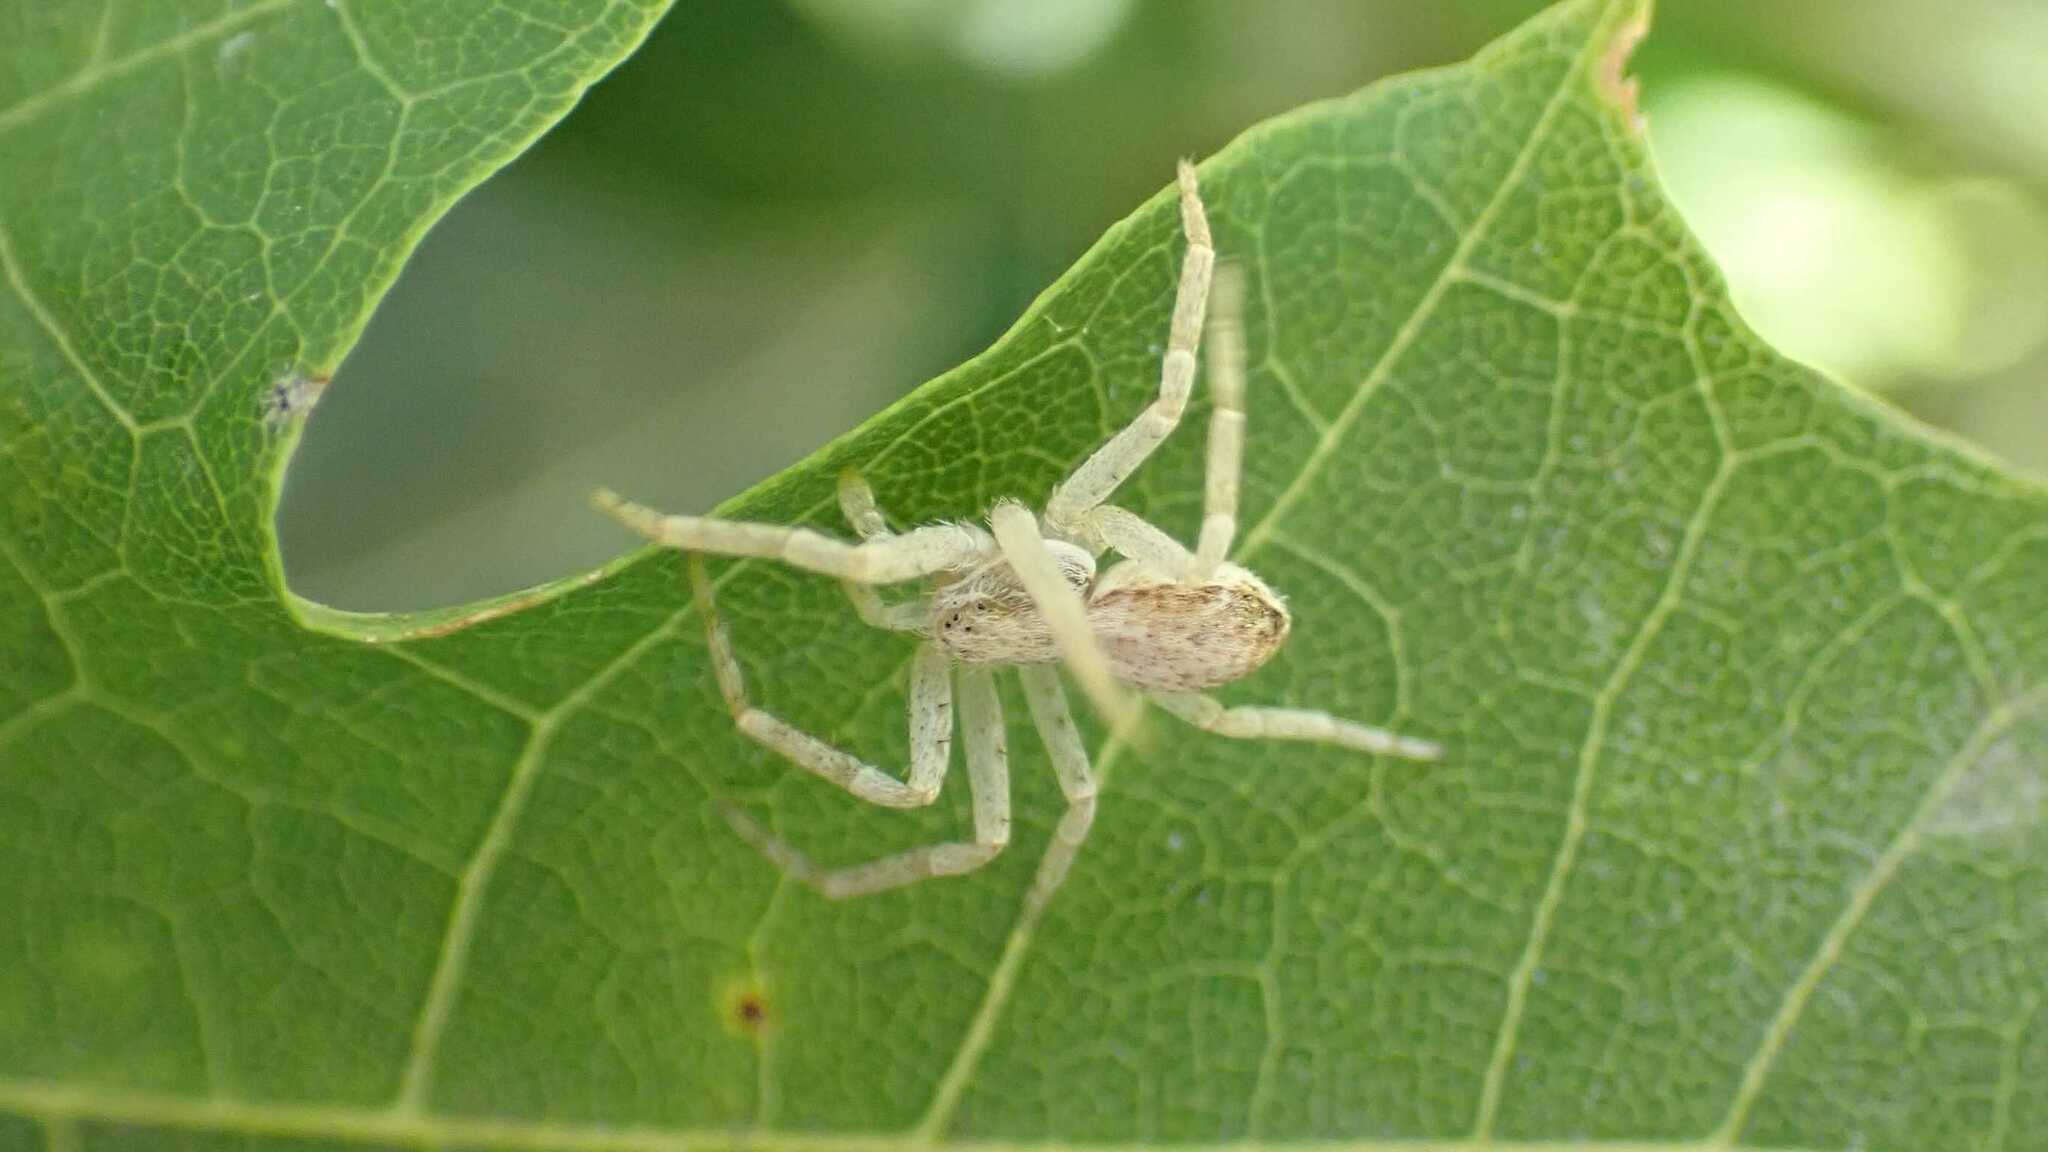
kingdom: Animalia
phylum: Arthropoda
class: Arachnida
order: Araneae
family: Philodromidae
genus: Philodromus
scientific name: Philodromus dispar
